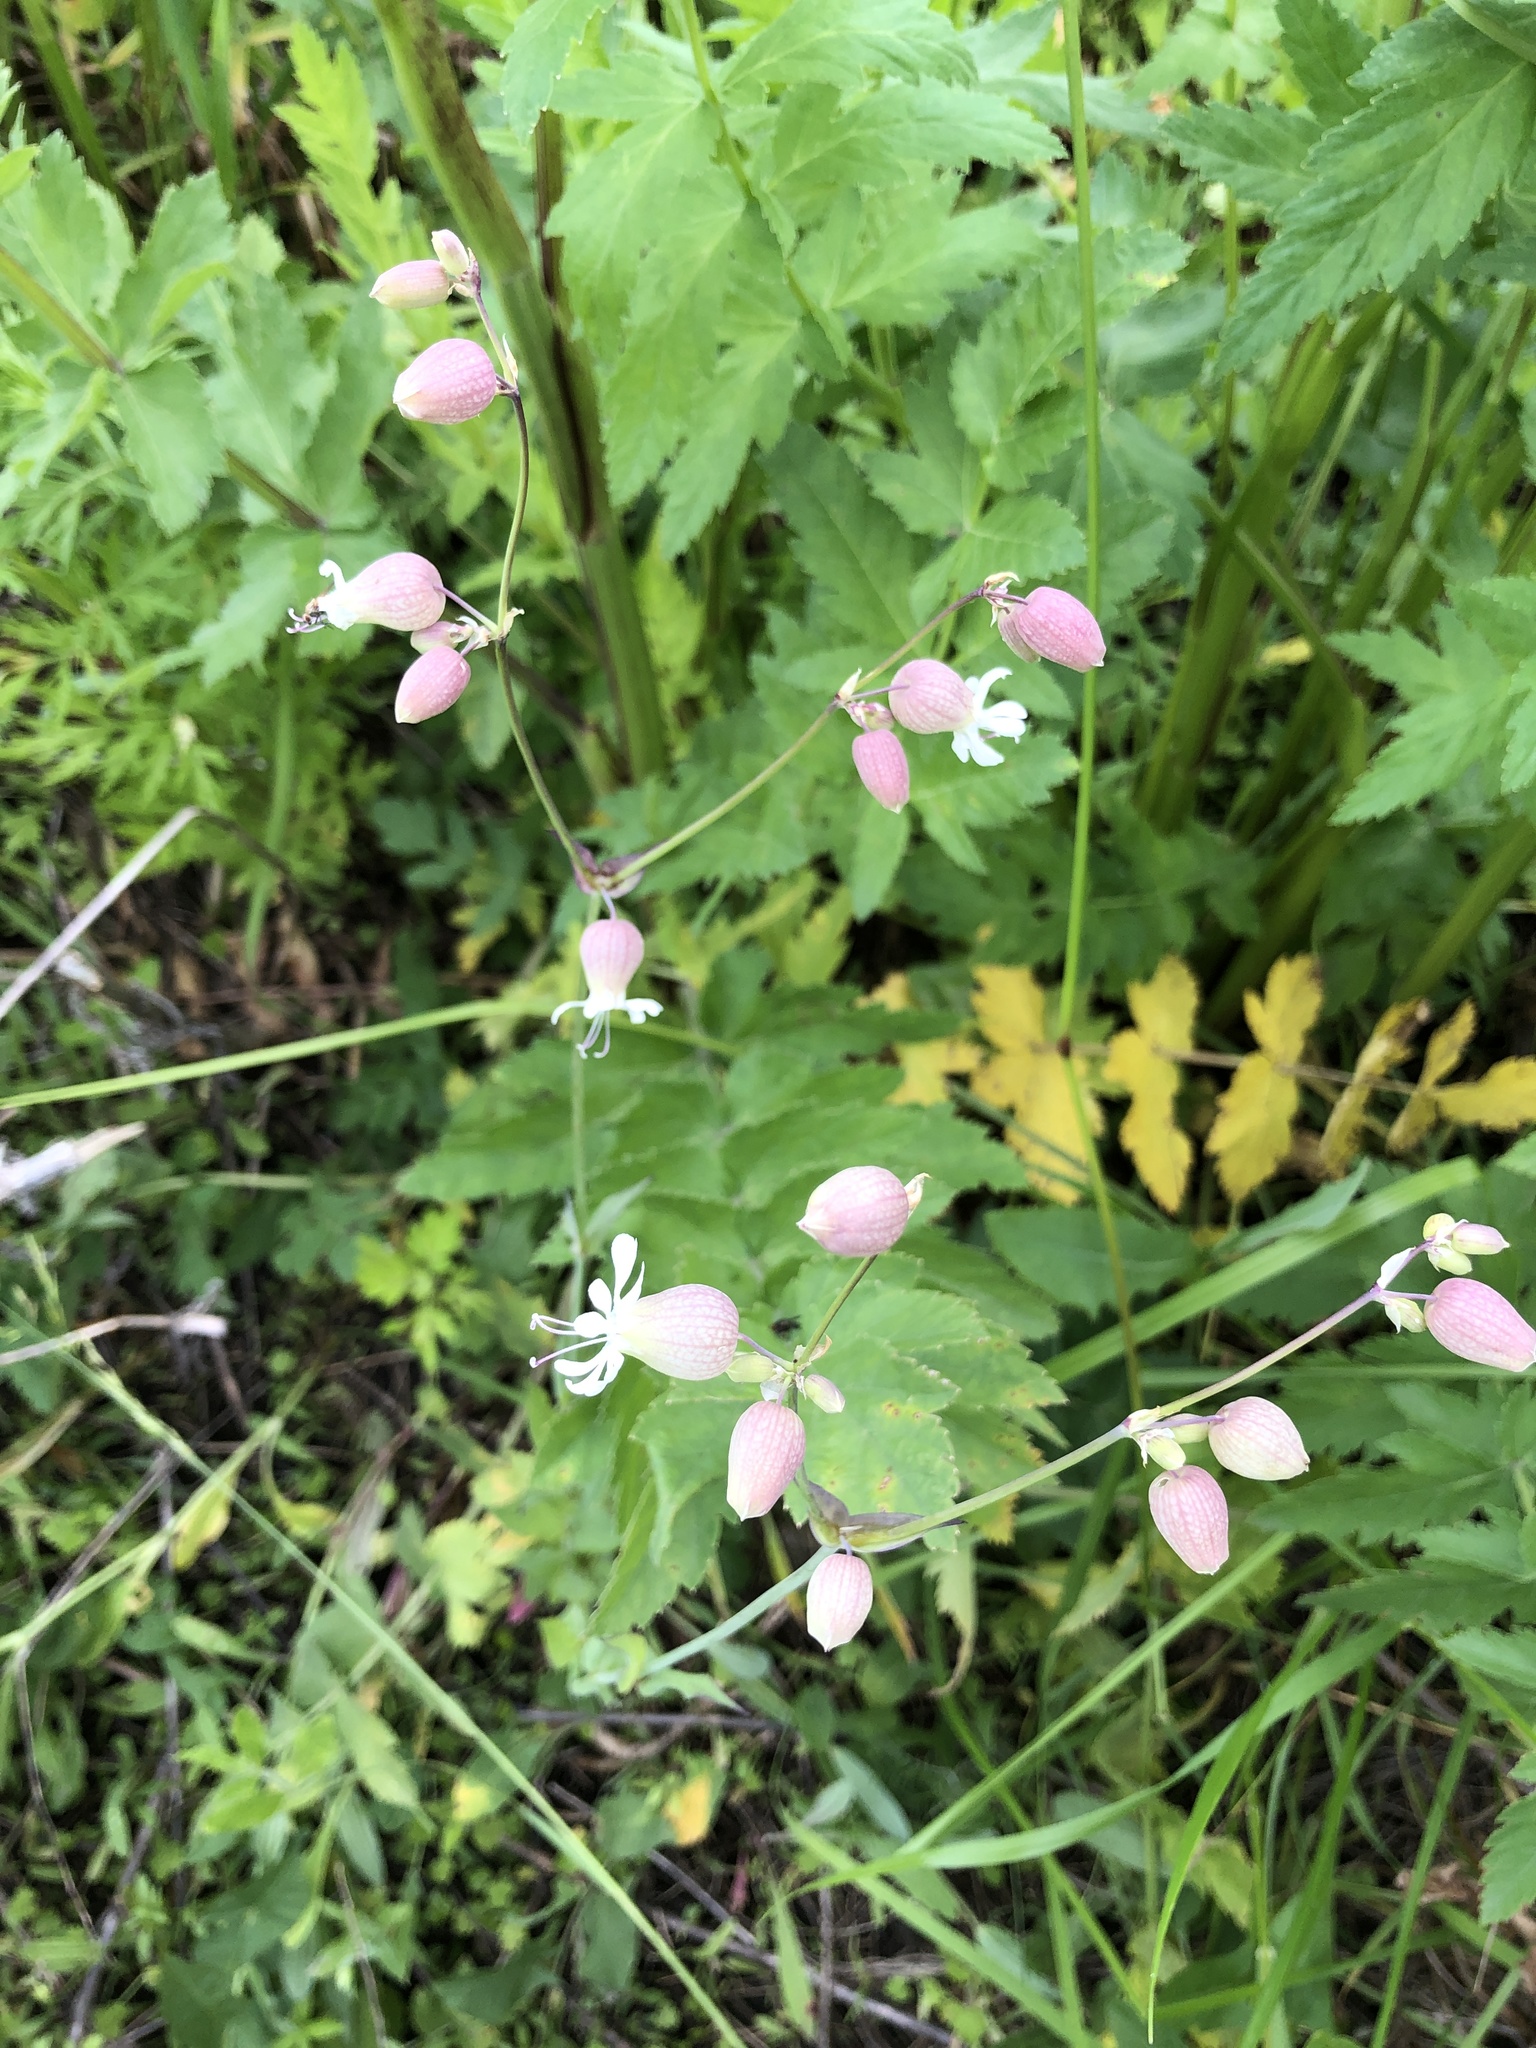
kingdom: Plantae
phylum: Tracheophyta
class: Magnoliopsida
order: Caryophyllales
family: Caryophyllaceae
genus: Silene
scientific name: Silene vulgaris
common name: Bladder campion
